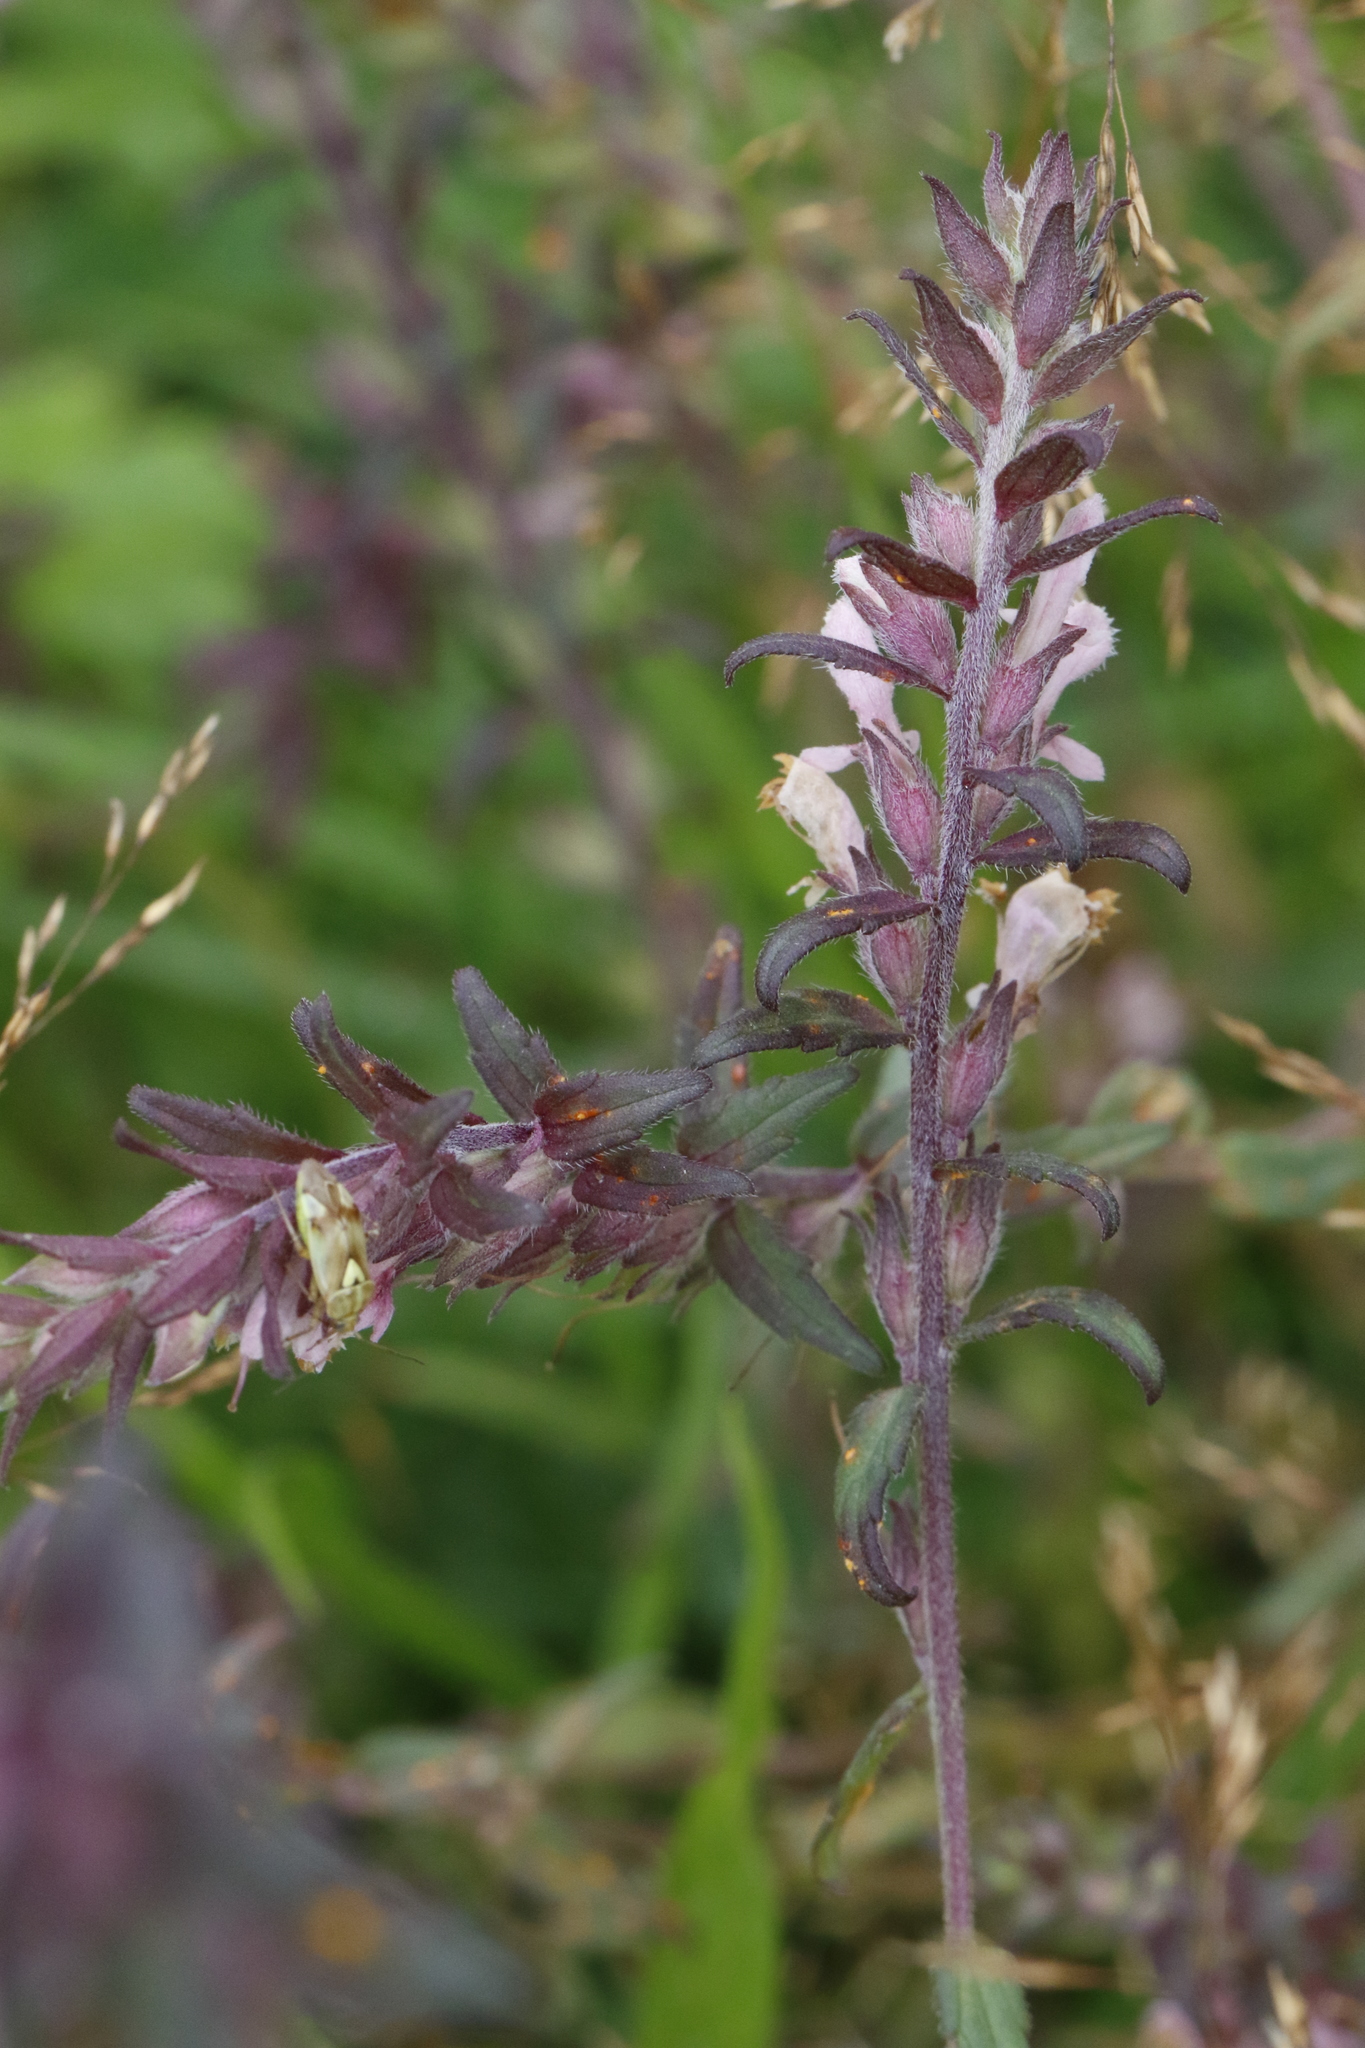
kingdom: Plantae
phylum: Tracheophyta
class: Magnoliopsida
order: Lamiales
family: Orobanchaceae
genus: Odontites
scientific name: Odontites vulgaris
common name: Broomrape
